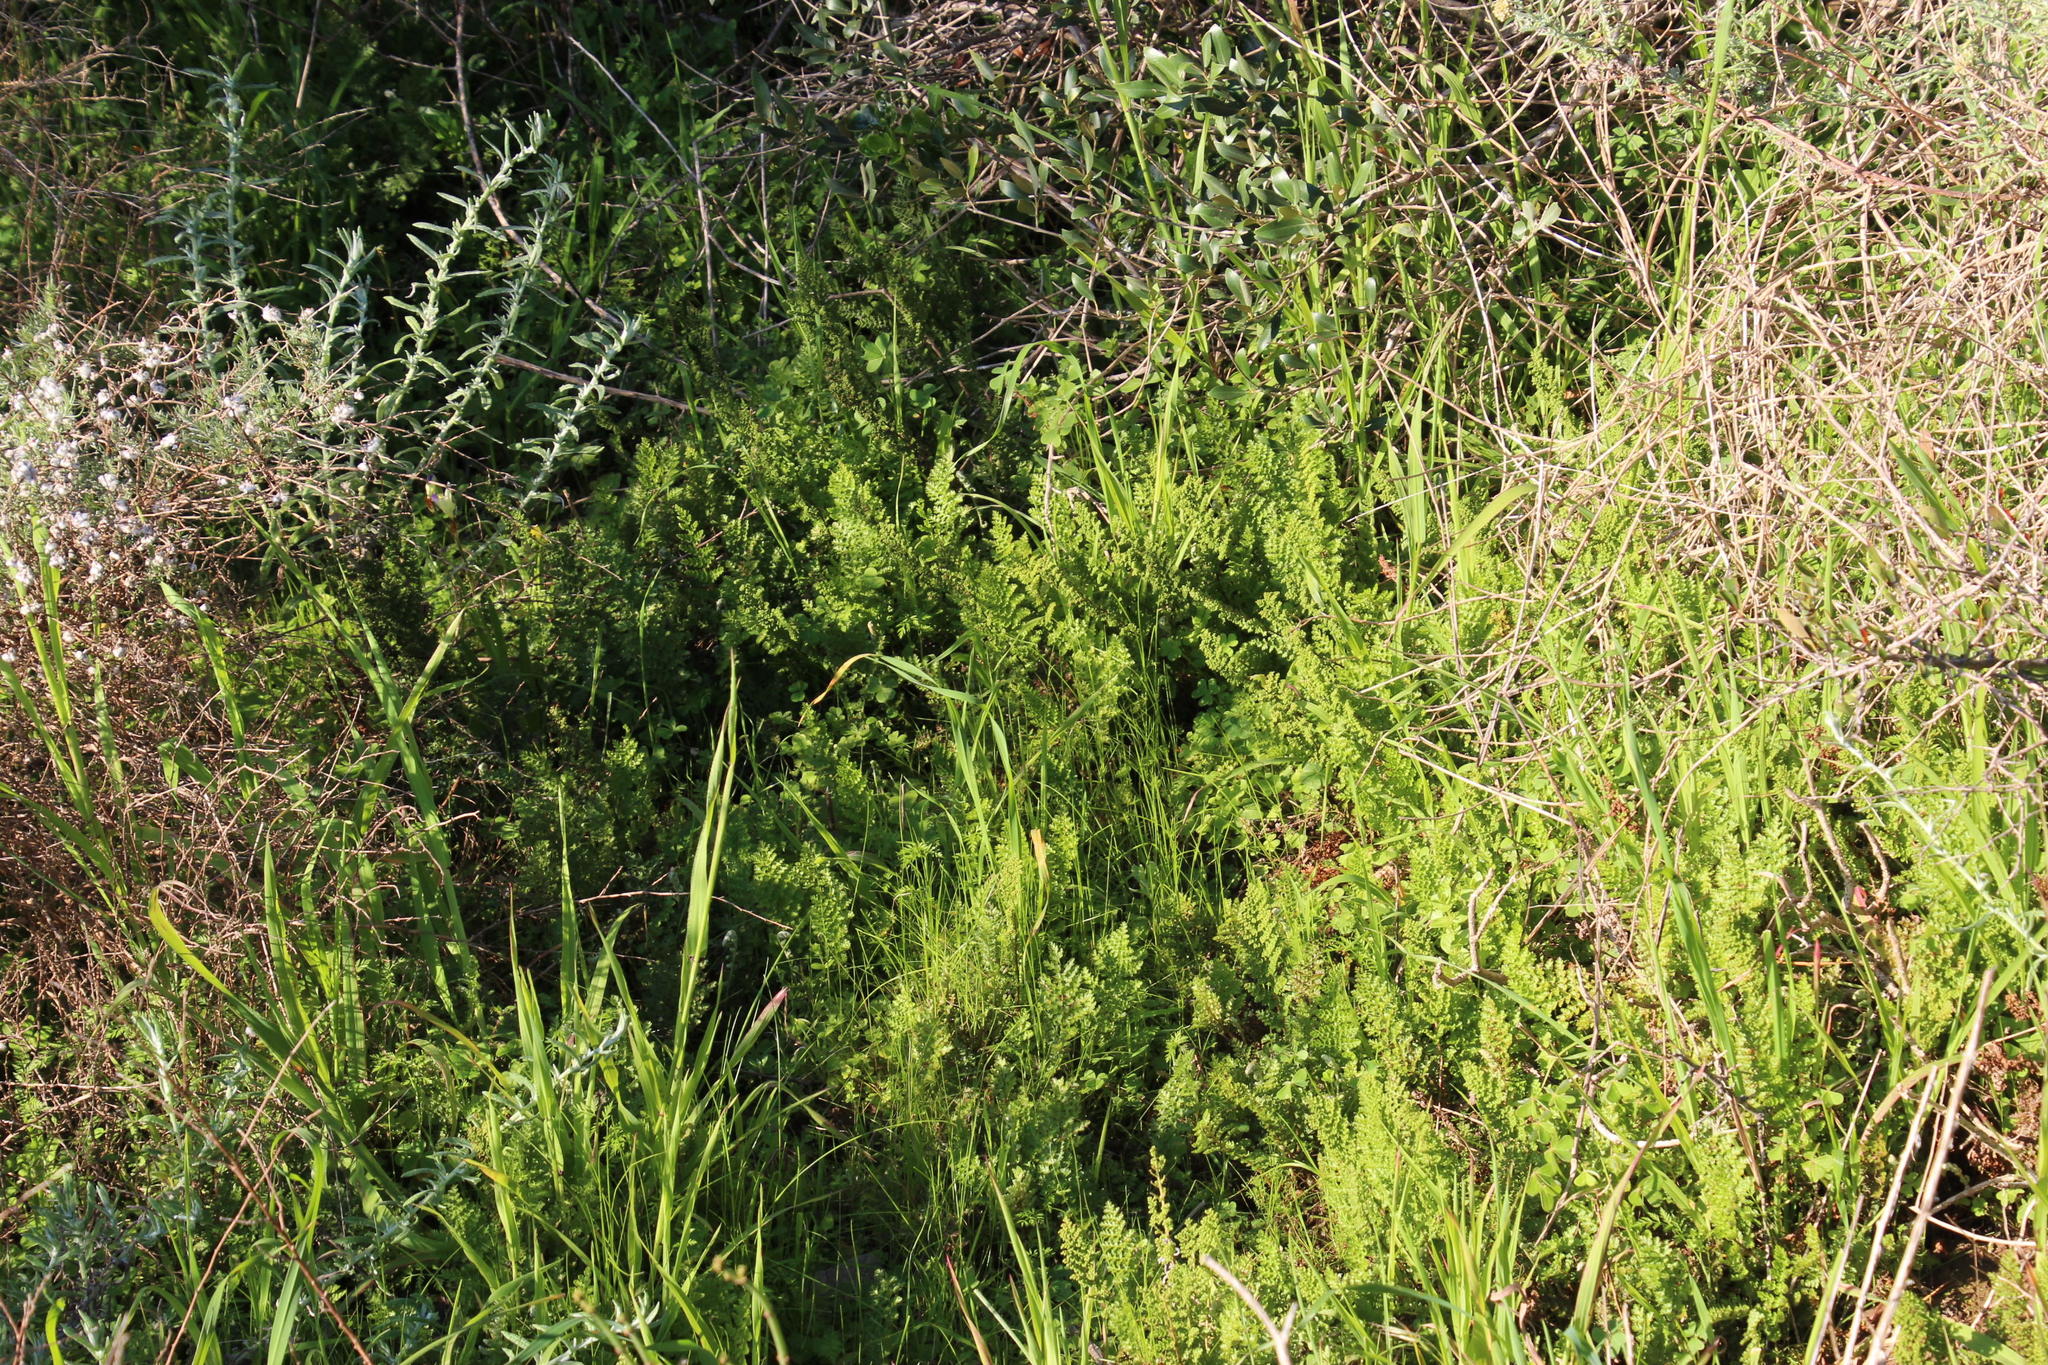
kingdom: Plantae
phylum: Tracheophyta
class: Polypodiopsida
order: Schizaeales
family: Anemiaceae
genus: Anemia
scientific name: Anemia caffrorum
